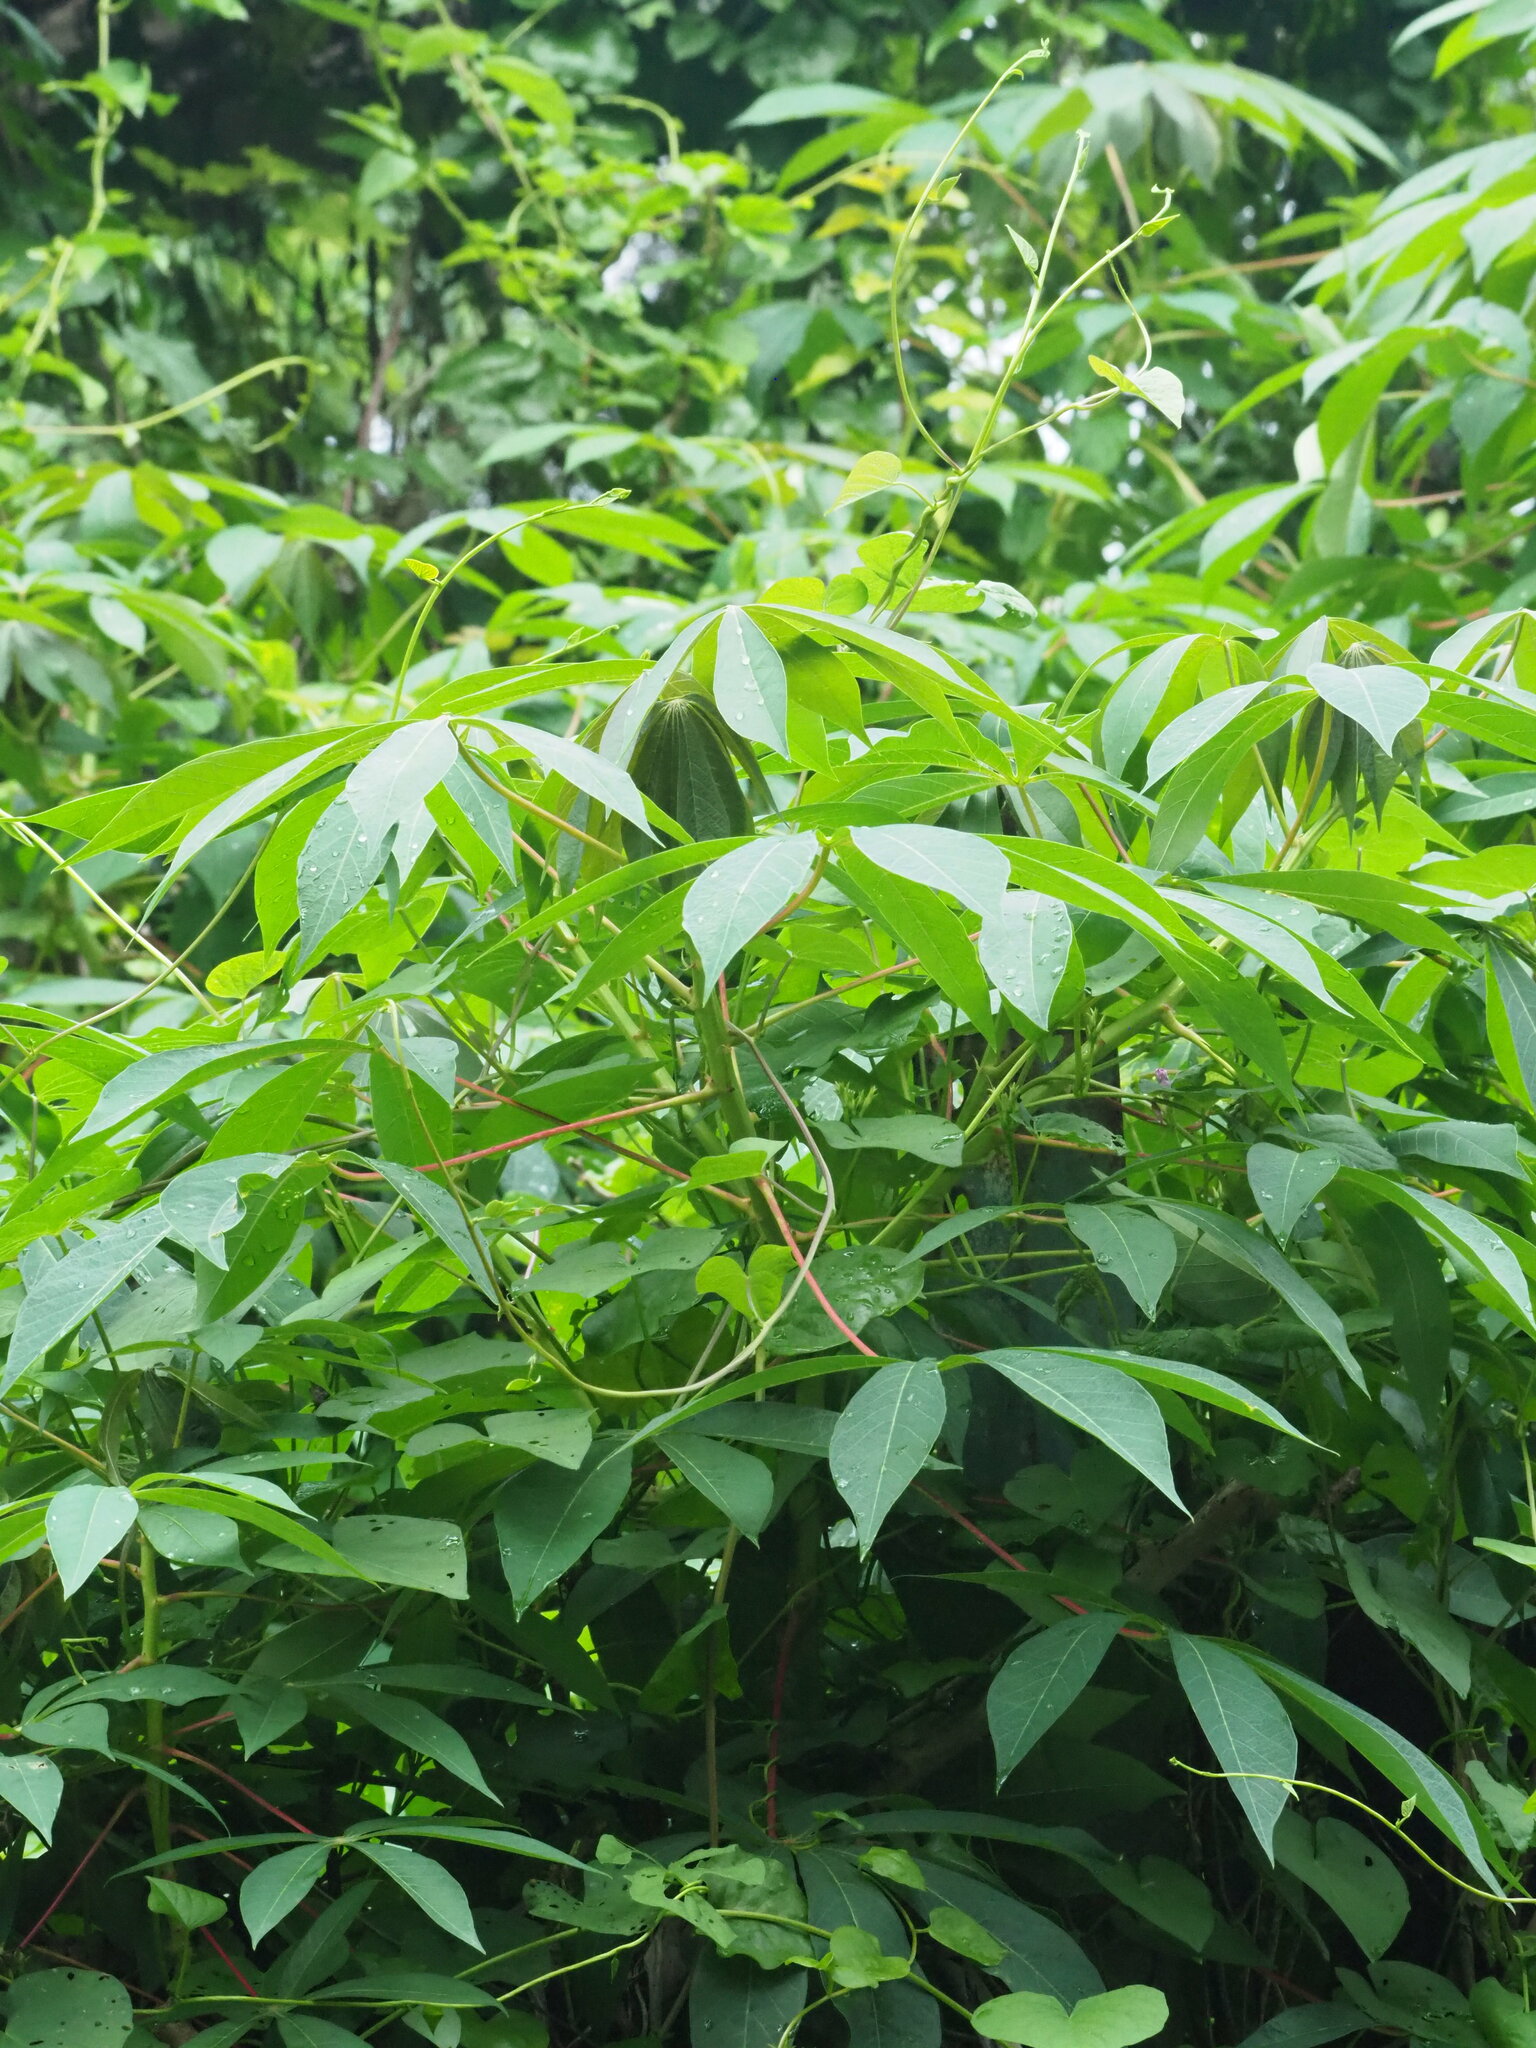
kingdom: Plantae
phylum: Tracheophyta
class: Magnoliopsida
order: Malpighiales
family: Euphorbiaceae
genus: Manihot
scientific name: Manihot esculenta
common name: Cassava
